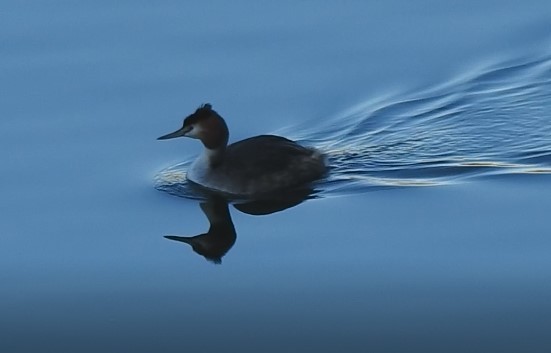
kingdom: Animalia
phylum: Chordata
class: Aves
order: Podicipediformes
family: Podicipedidae
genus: Podiceps
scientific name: Podiceps cristatus
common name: Great crested grebe
